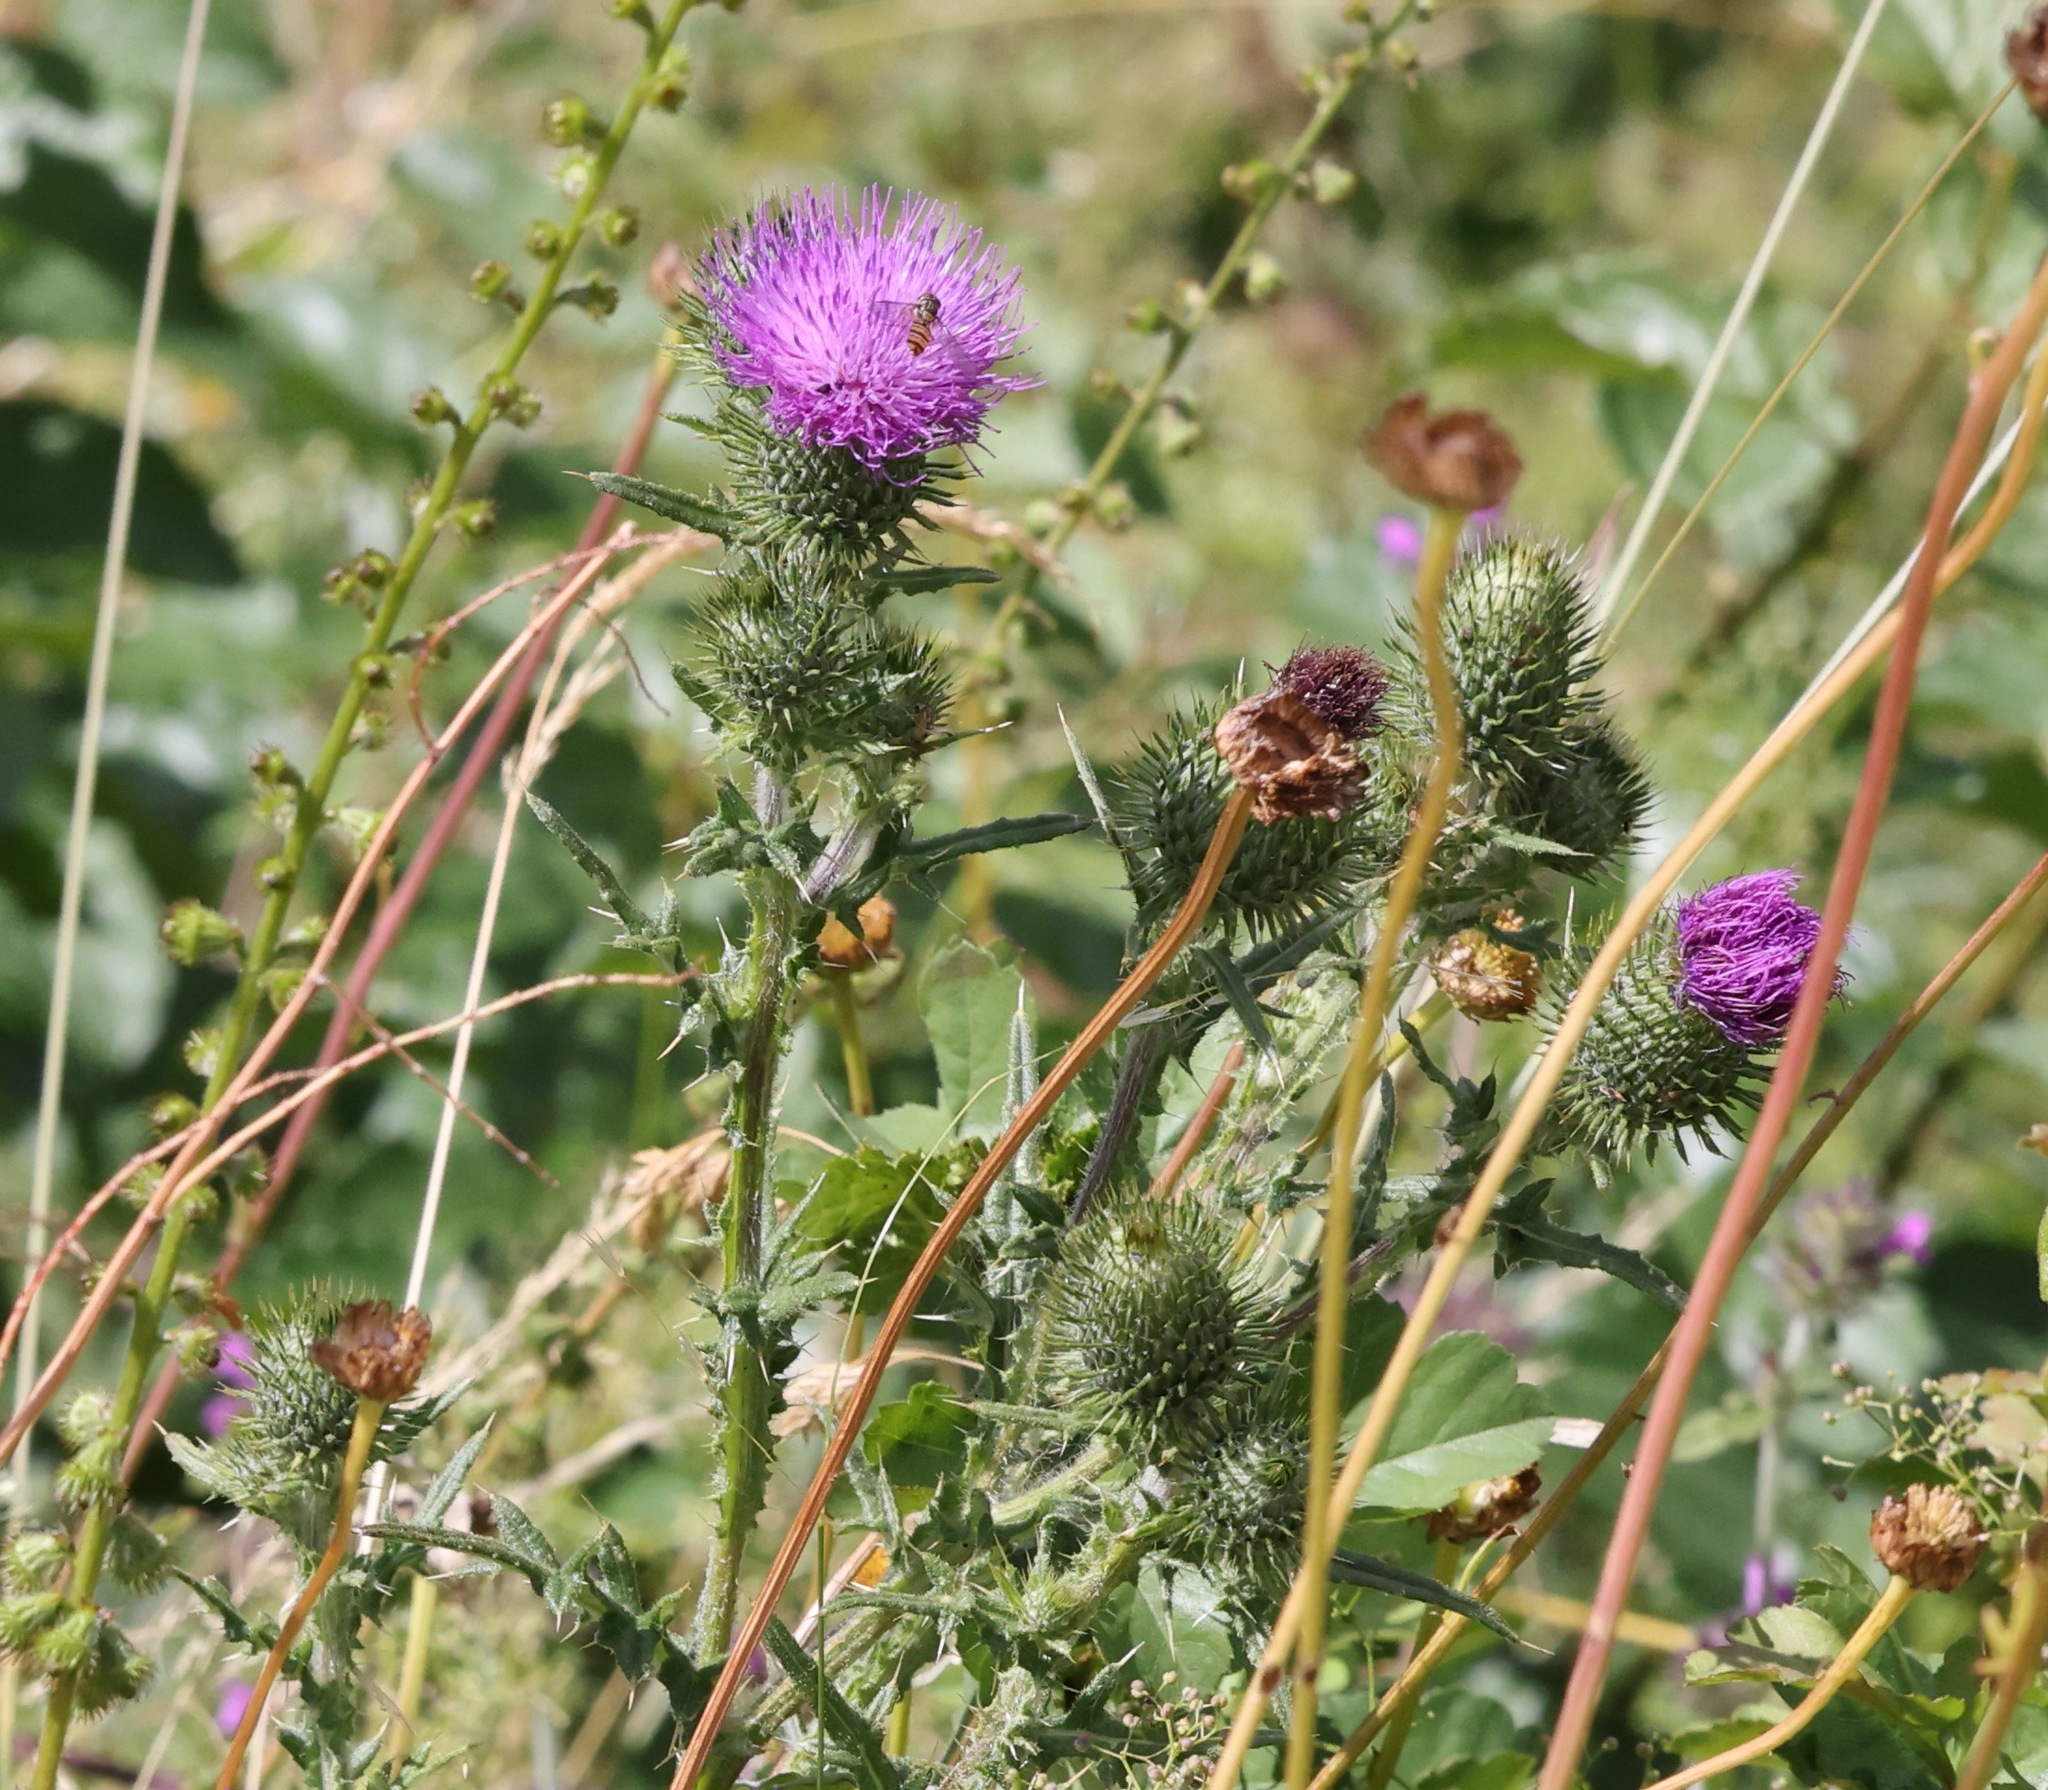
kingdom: Plantae
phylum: Tracheophyta
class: Magnoliopsida
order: Asterales
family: Asteraceae
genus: Cirsium
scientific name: Cirsium vulgare
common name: Bull thistle
